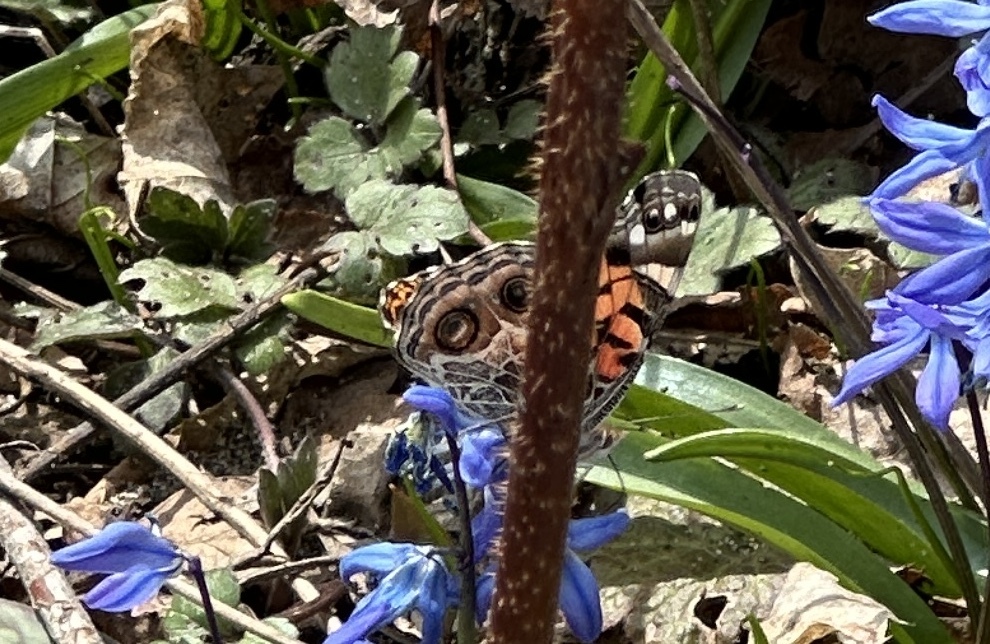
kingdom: Animalia
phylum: Arthropoda
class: Insecta
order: Lepidoptera
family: Nymphalidae
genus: Vanessa
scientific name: Vanessa virginiensis
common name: American lady
